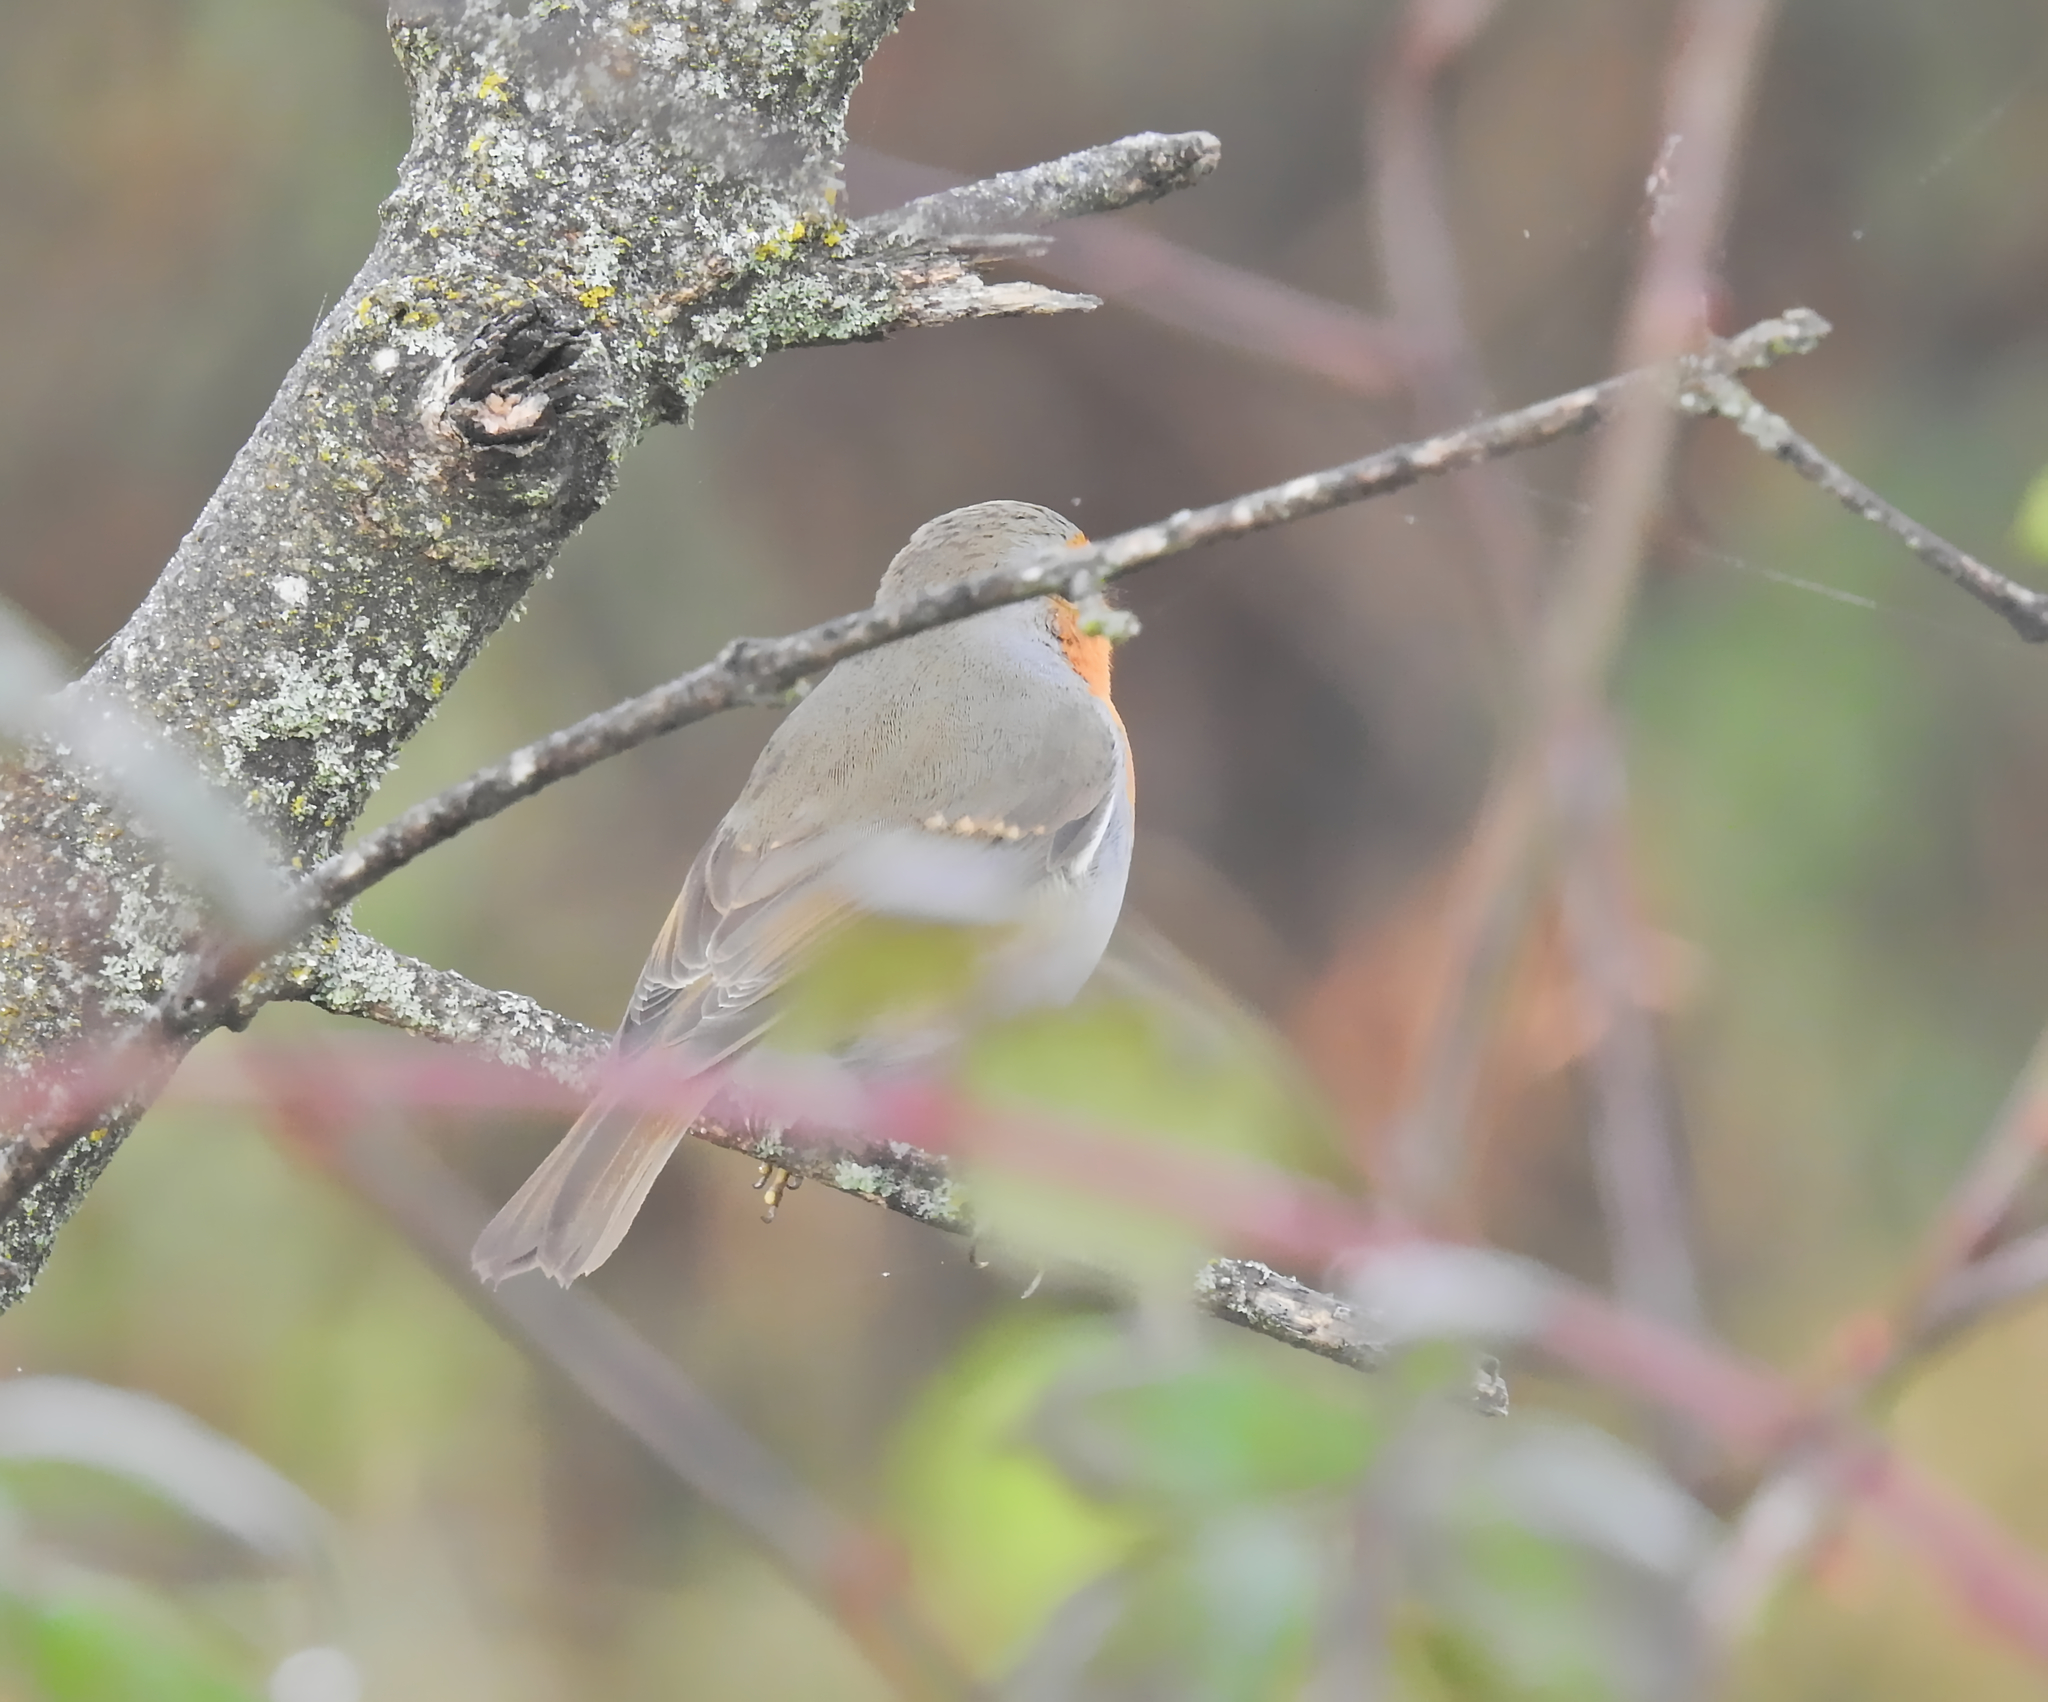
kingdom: Animalia
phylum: Chordata
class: Aves
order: Passeriformes
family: Muscicapidae
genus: Erithacus
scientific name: Erithacus rubecula
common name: European robin
